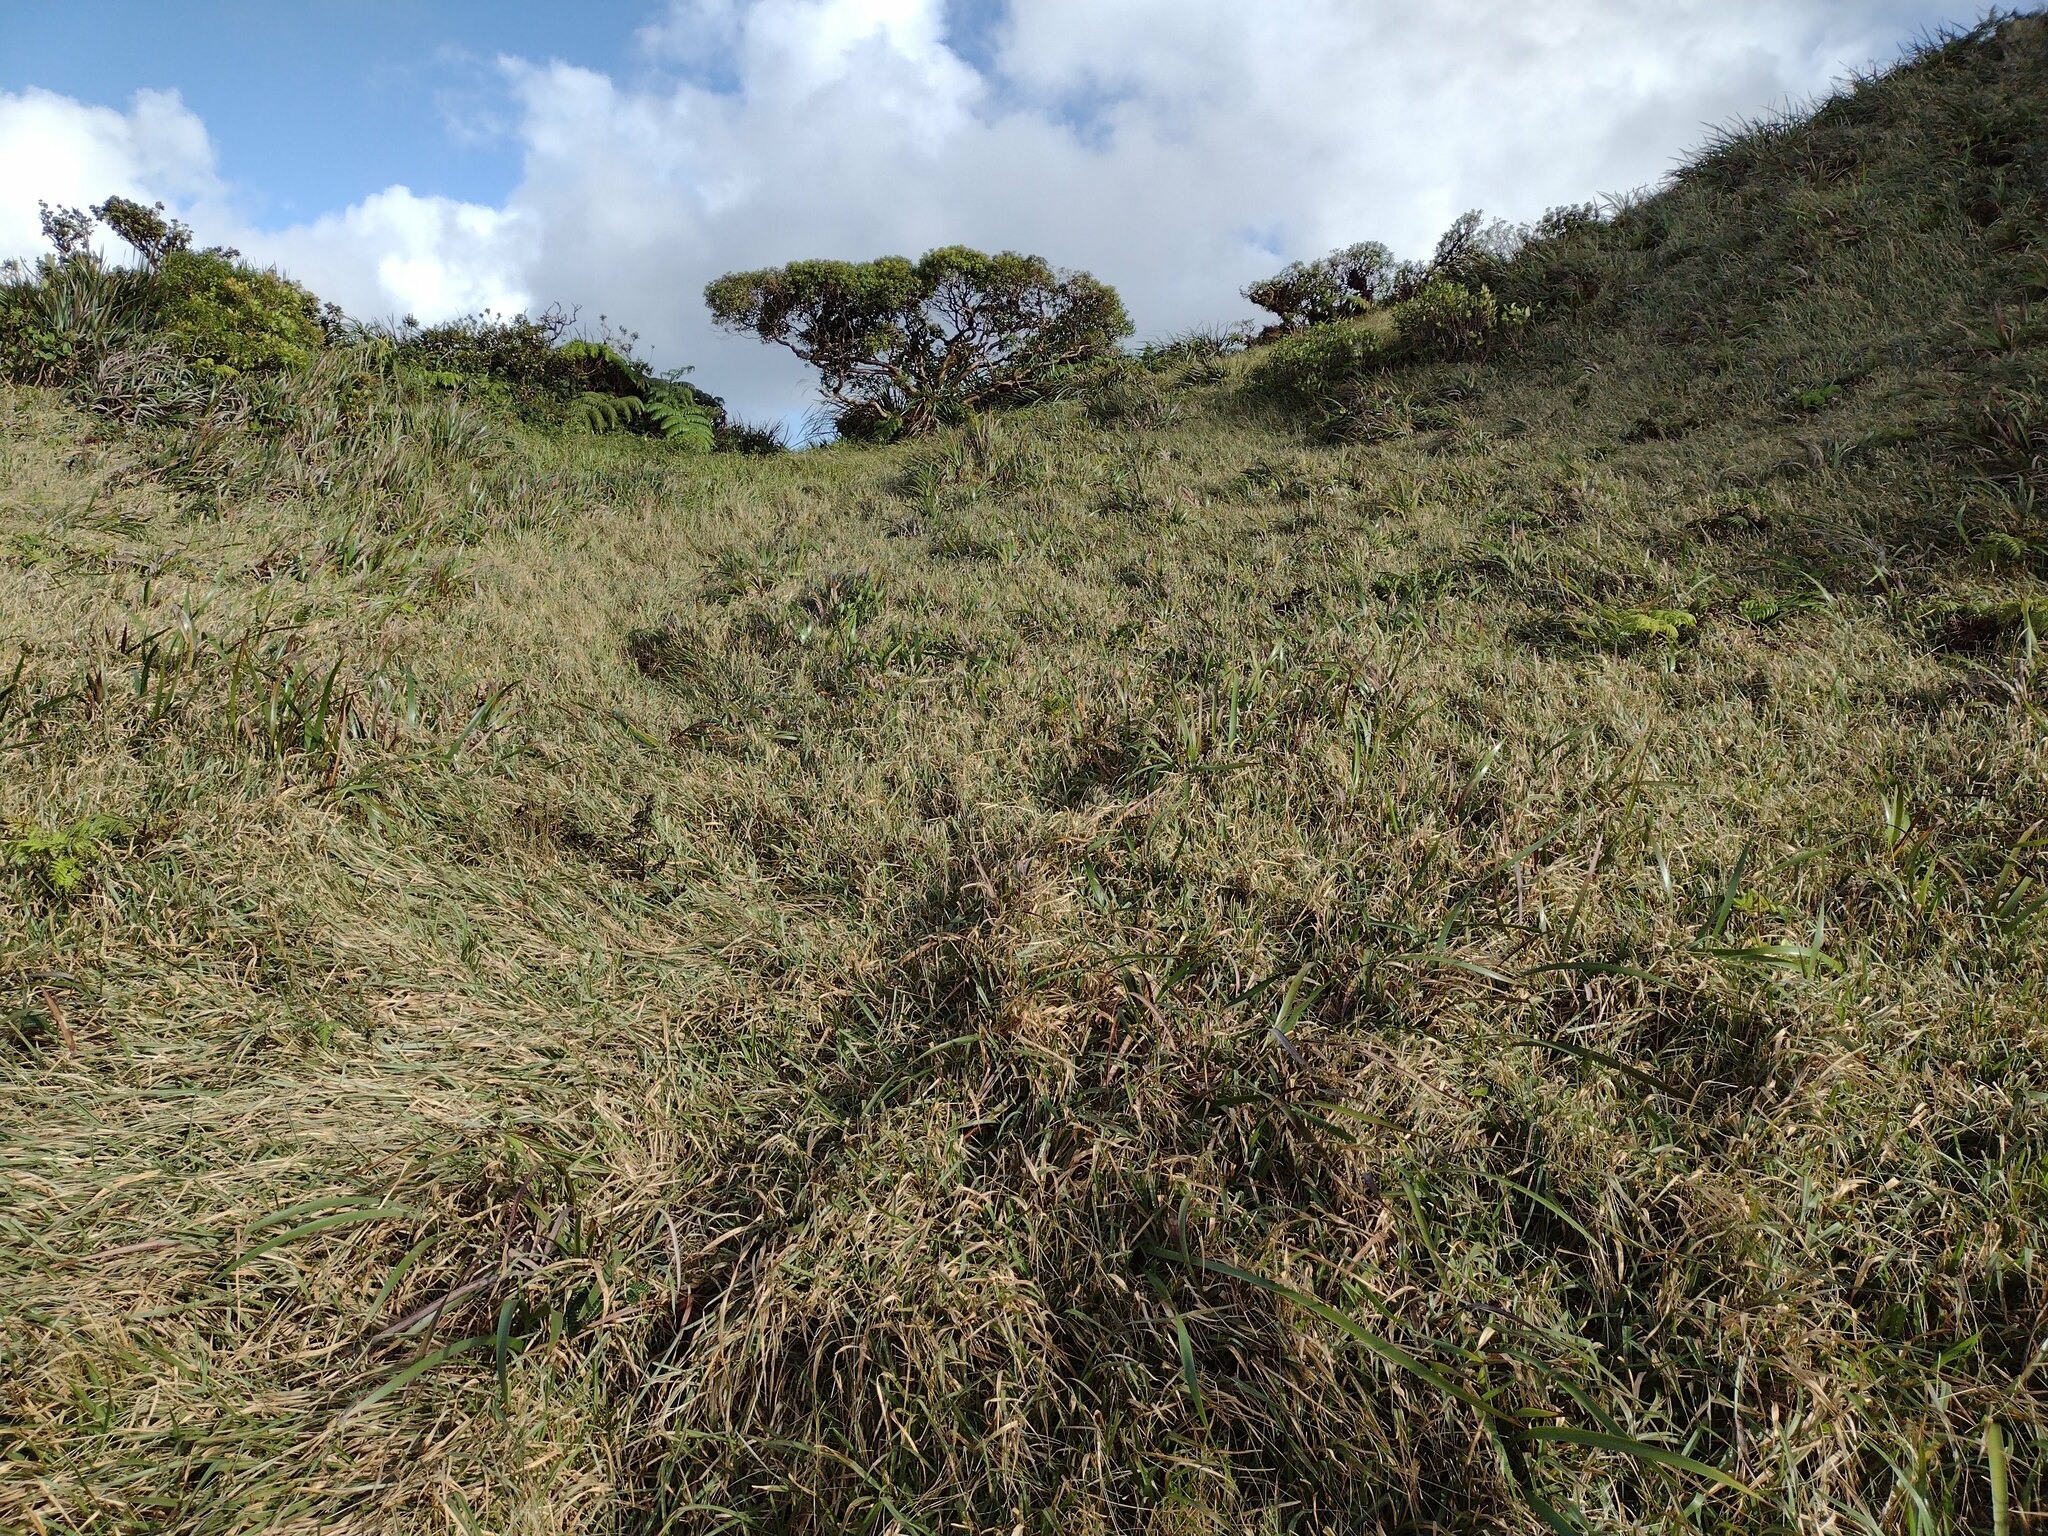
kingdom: Plantae
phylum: Tracheophyta
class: Liliopsida
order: Poales
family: Poaceae
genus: Axonopus
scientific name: Axonopus fissifolius
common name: Common carpetgrass
